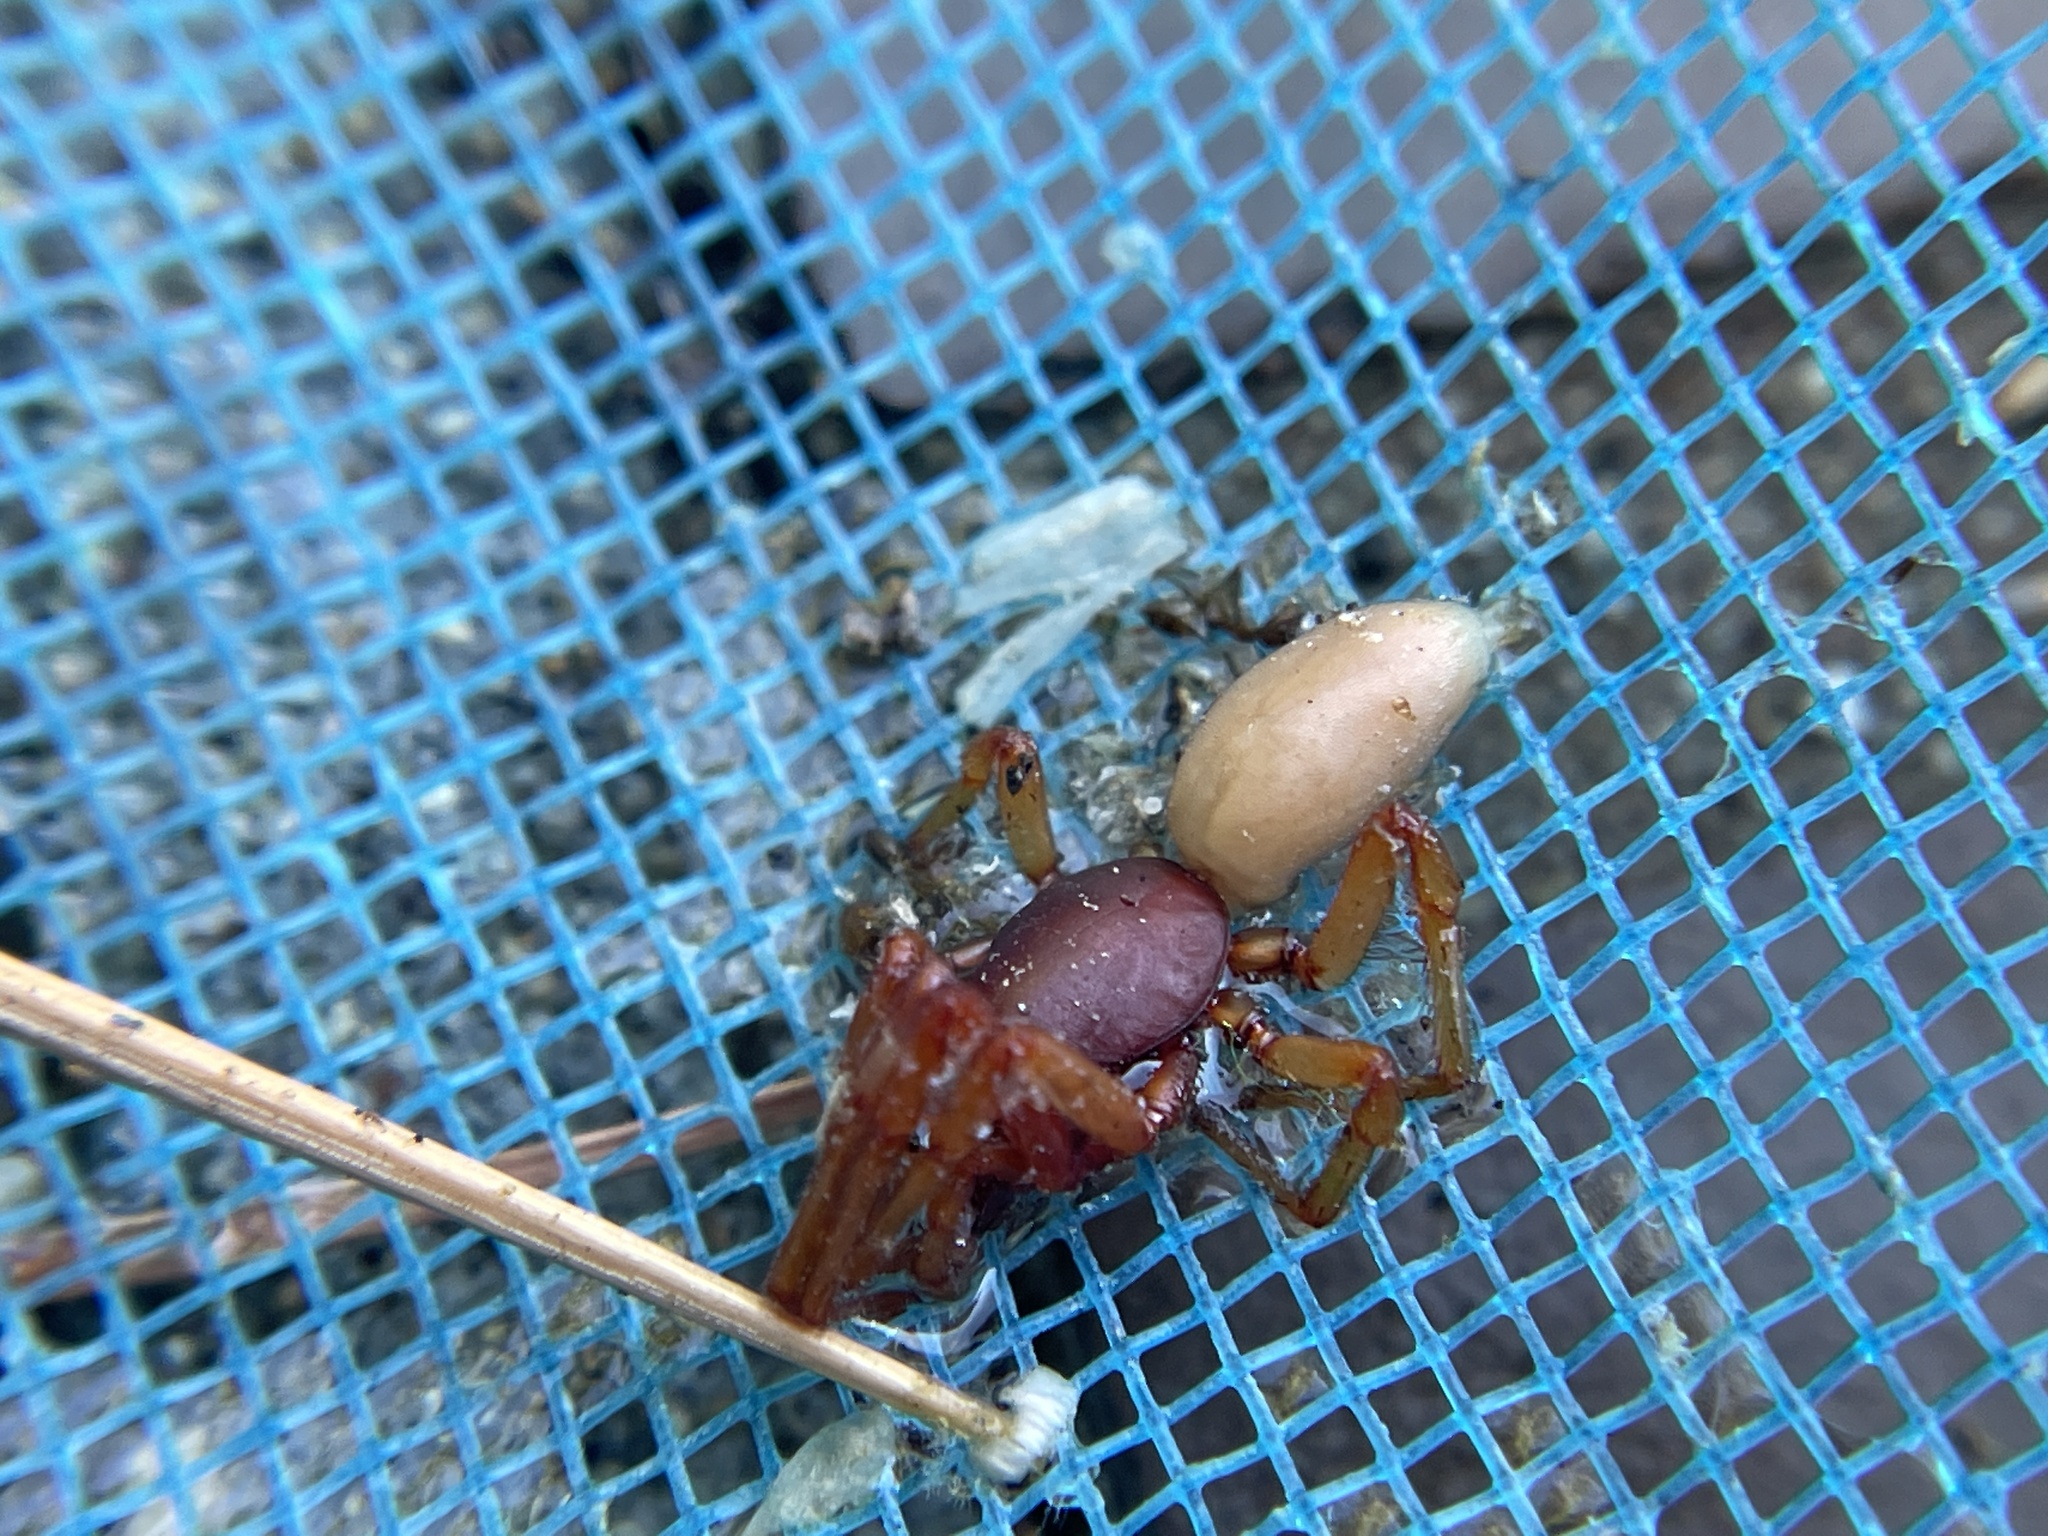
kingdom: Animalia
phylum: Arthropoda
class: Arachnida
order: Araneae
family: Dysderidae
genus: Dysdera
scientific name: Dysdera crocata
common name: Woodlouse spider
